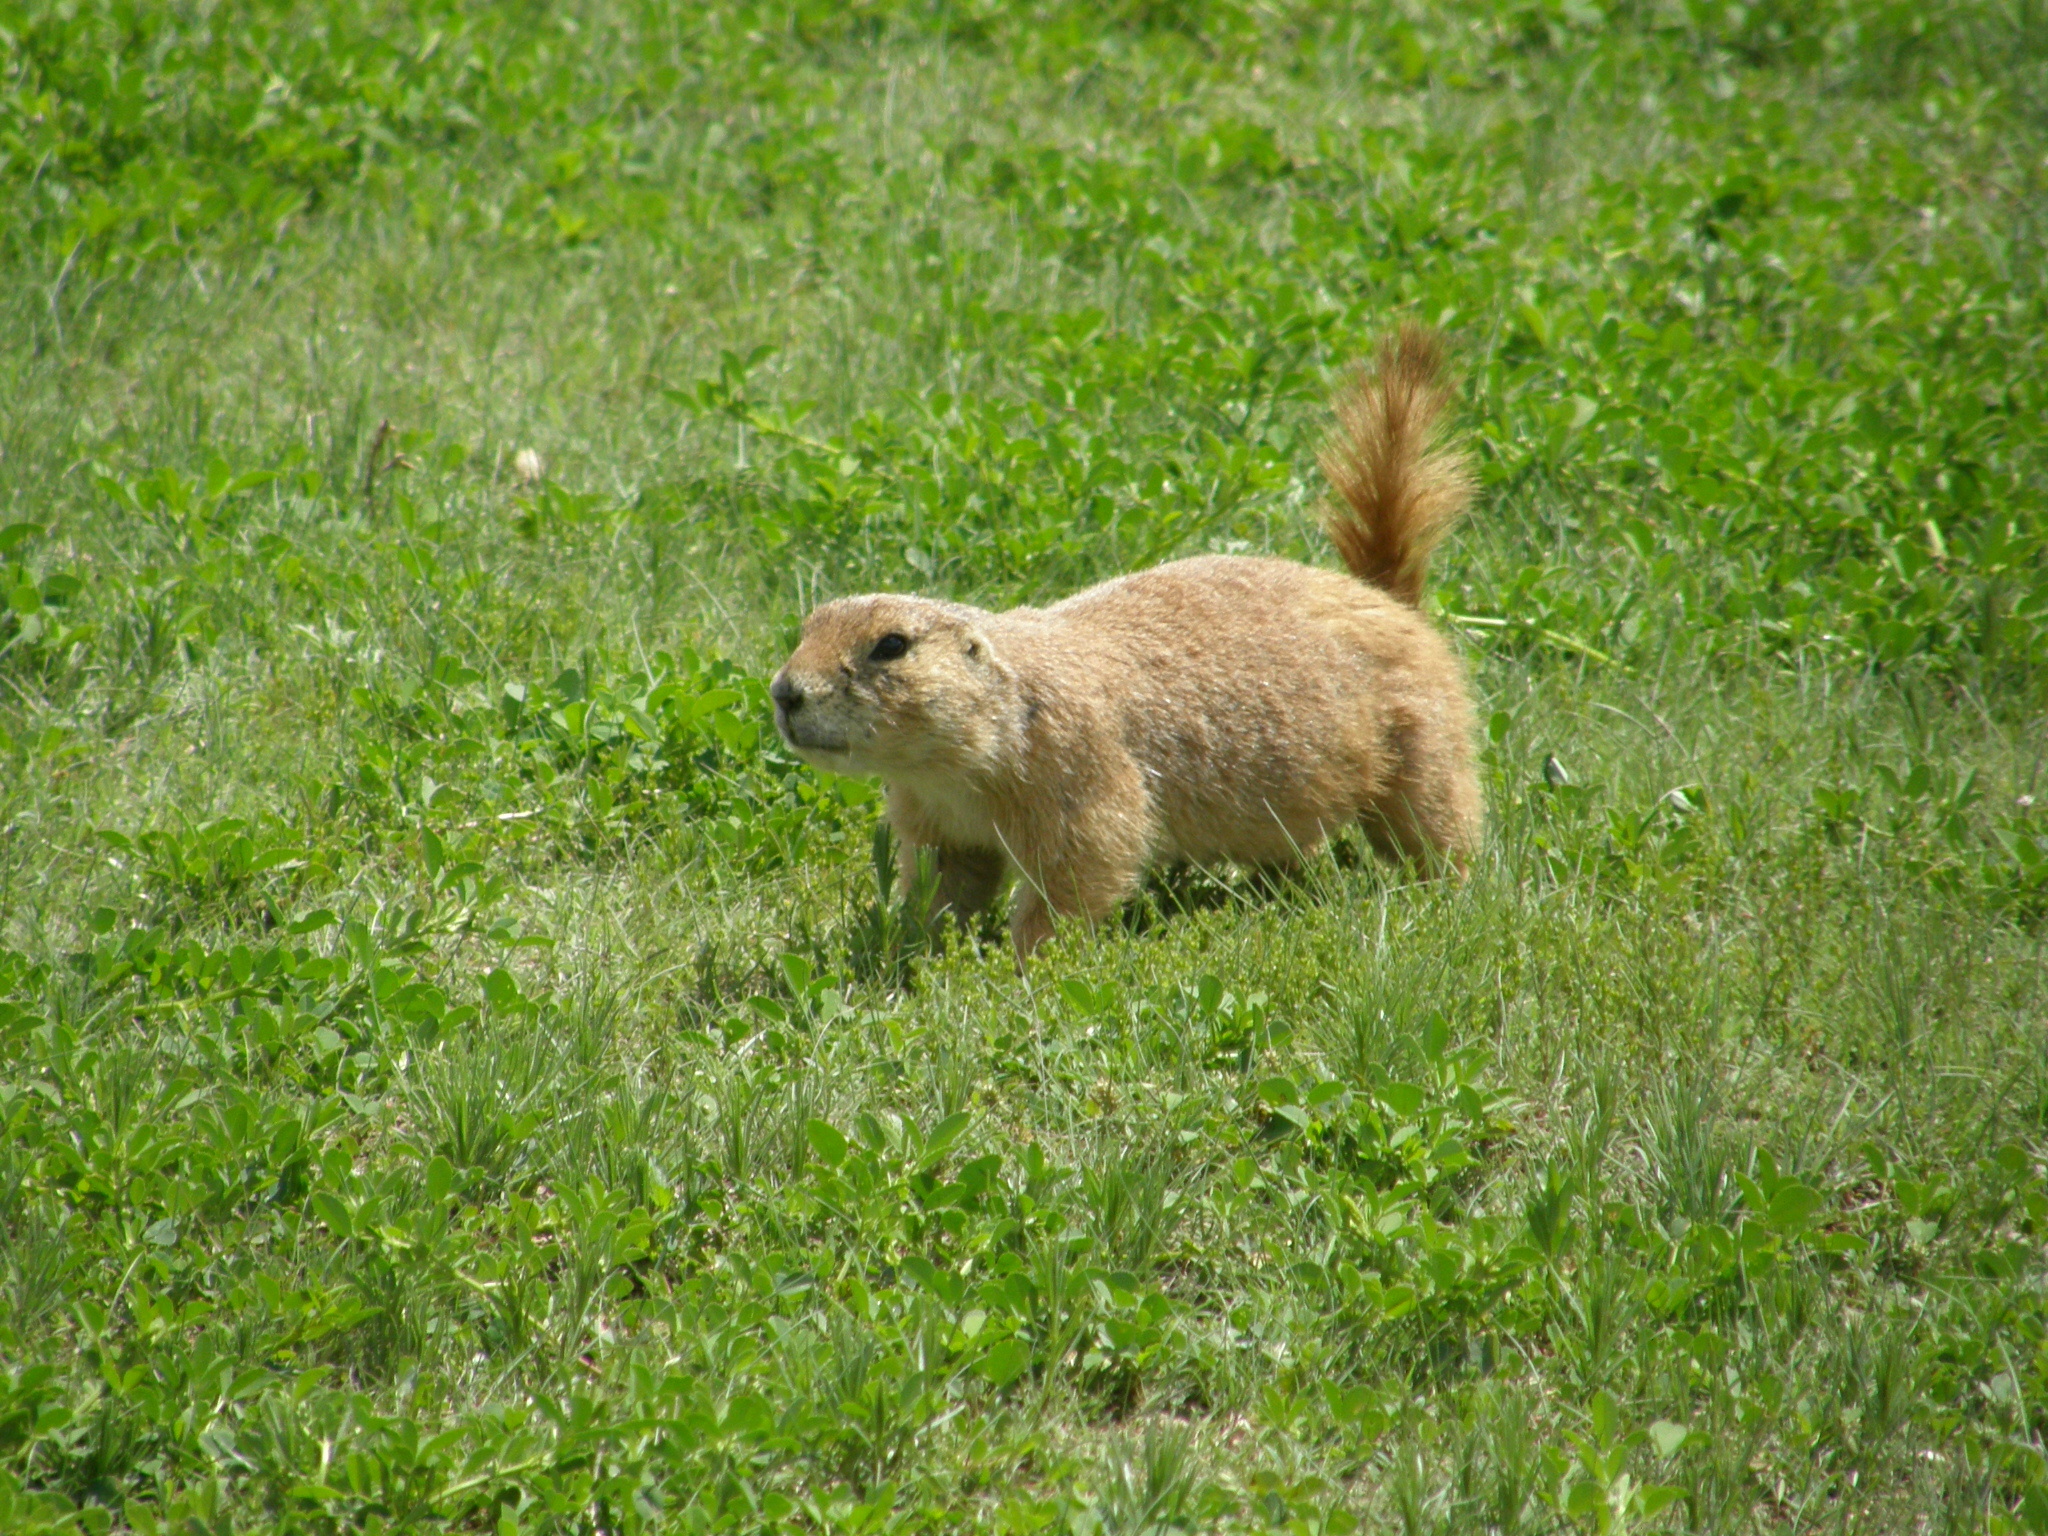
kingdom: Animalia
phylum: Chordata
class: Mammalia
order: Rodentia
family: Sciuridae
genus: Cynomys
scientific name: Cynomys ludovicianus
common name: Black-tailed prairie dog
